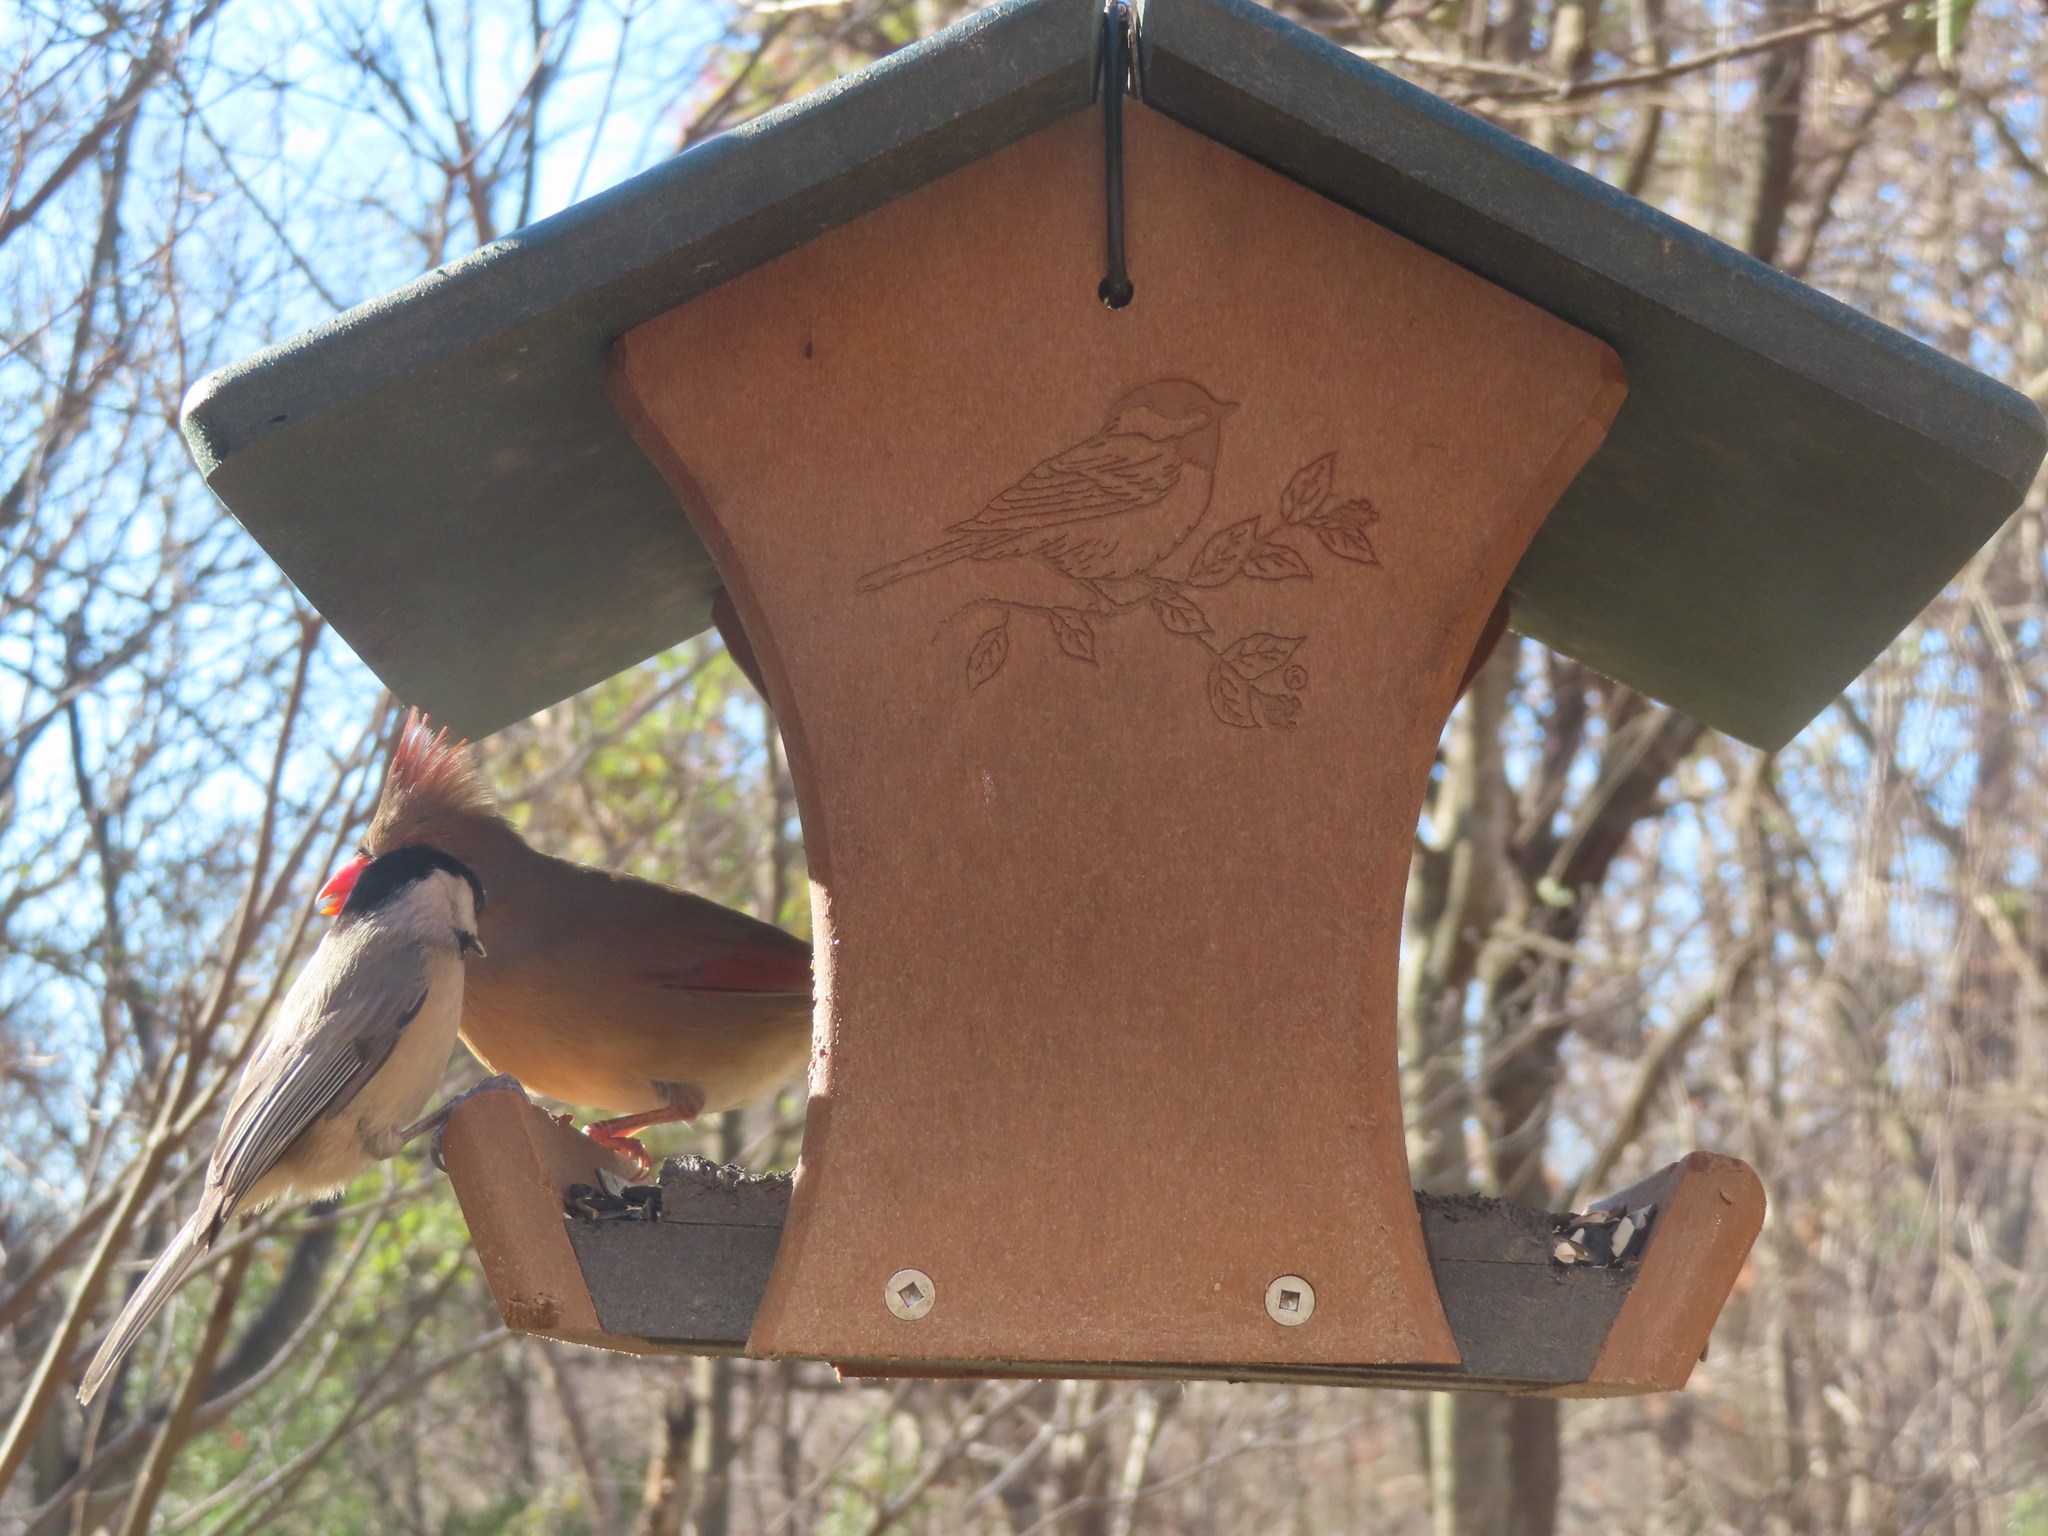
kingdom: Animalia
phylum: Chordata
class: Aves
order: Passeriformes
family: Paridae
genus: Poecile
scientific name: Poecile carolinensis
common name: Carolina chickadee
